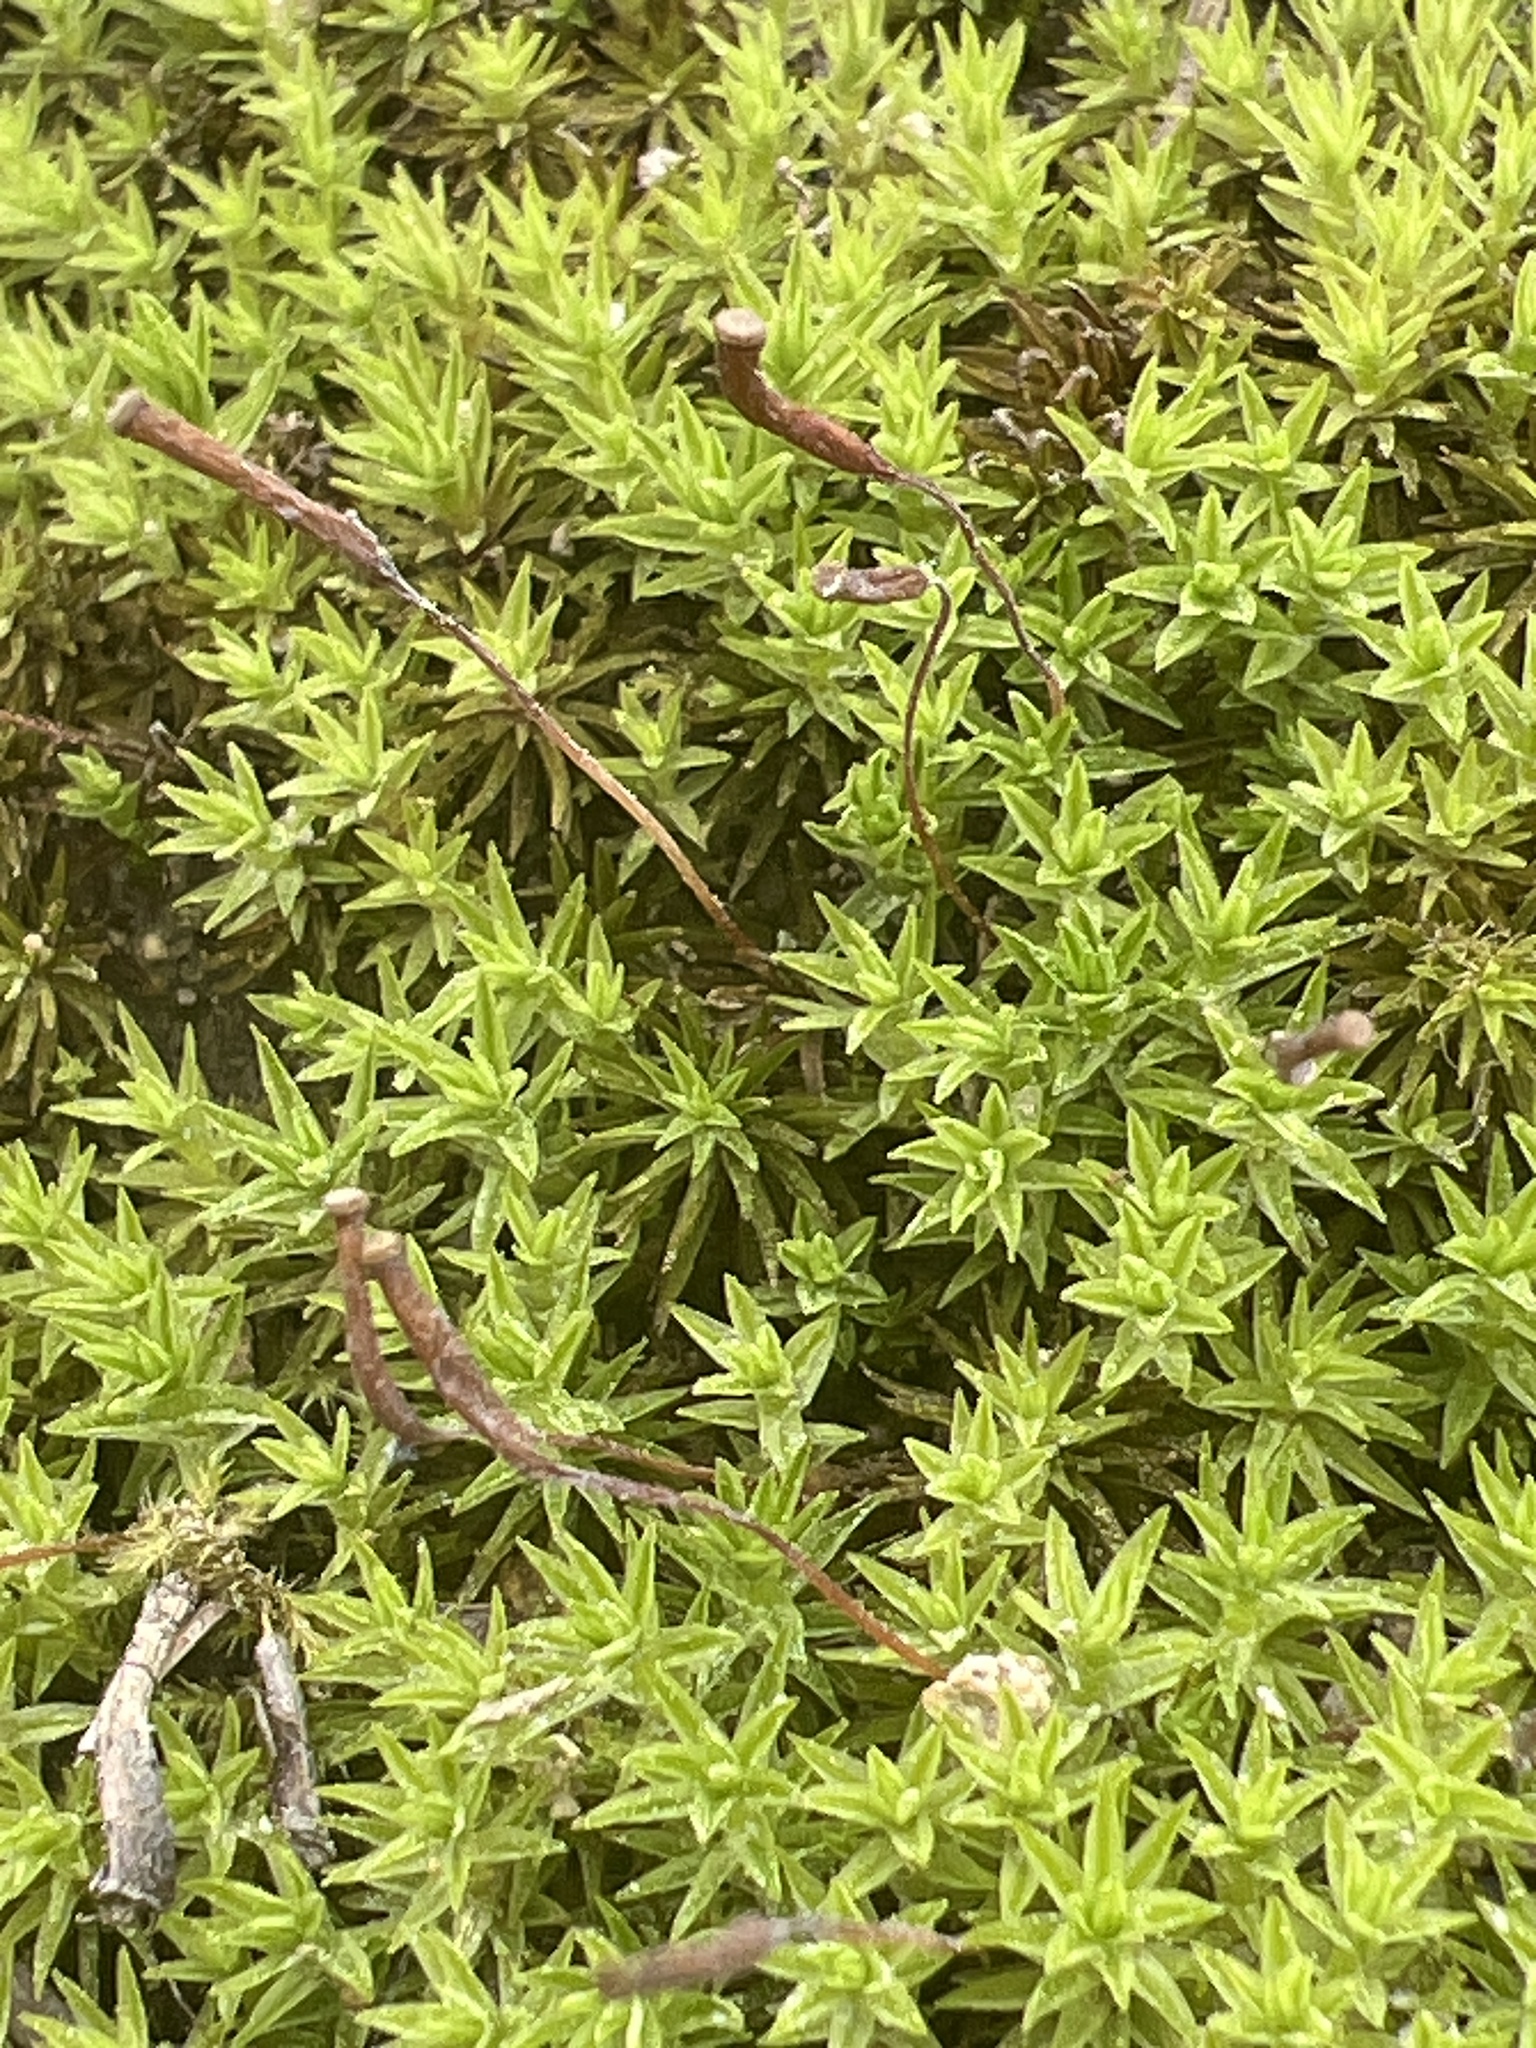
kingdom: Plantae
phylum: Bryophyta
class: Polytrichopsida
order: Polytrichales
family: Polytrichaceae
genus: Atrichum
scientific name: Atrichum angustatum
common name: Lesser smoothcap
